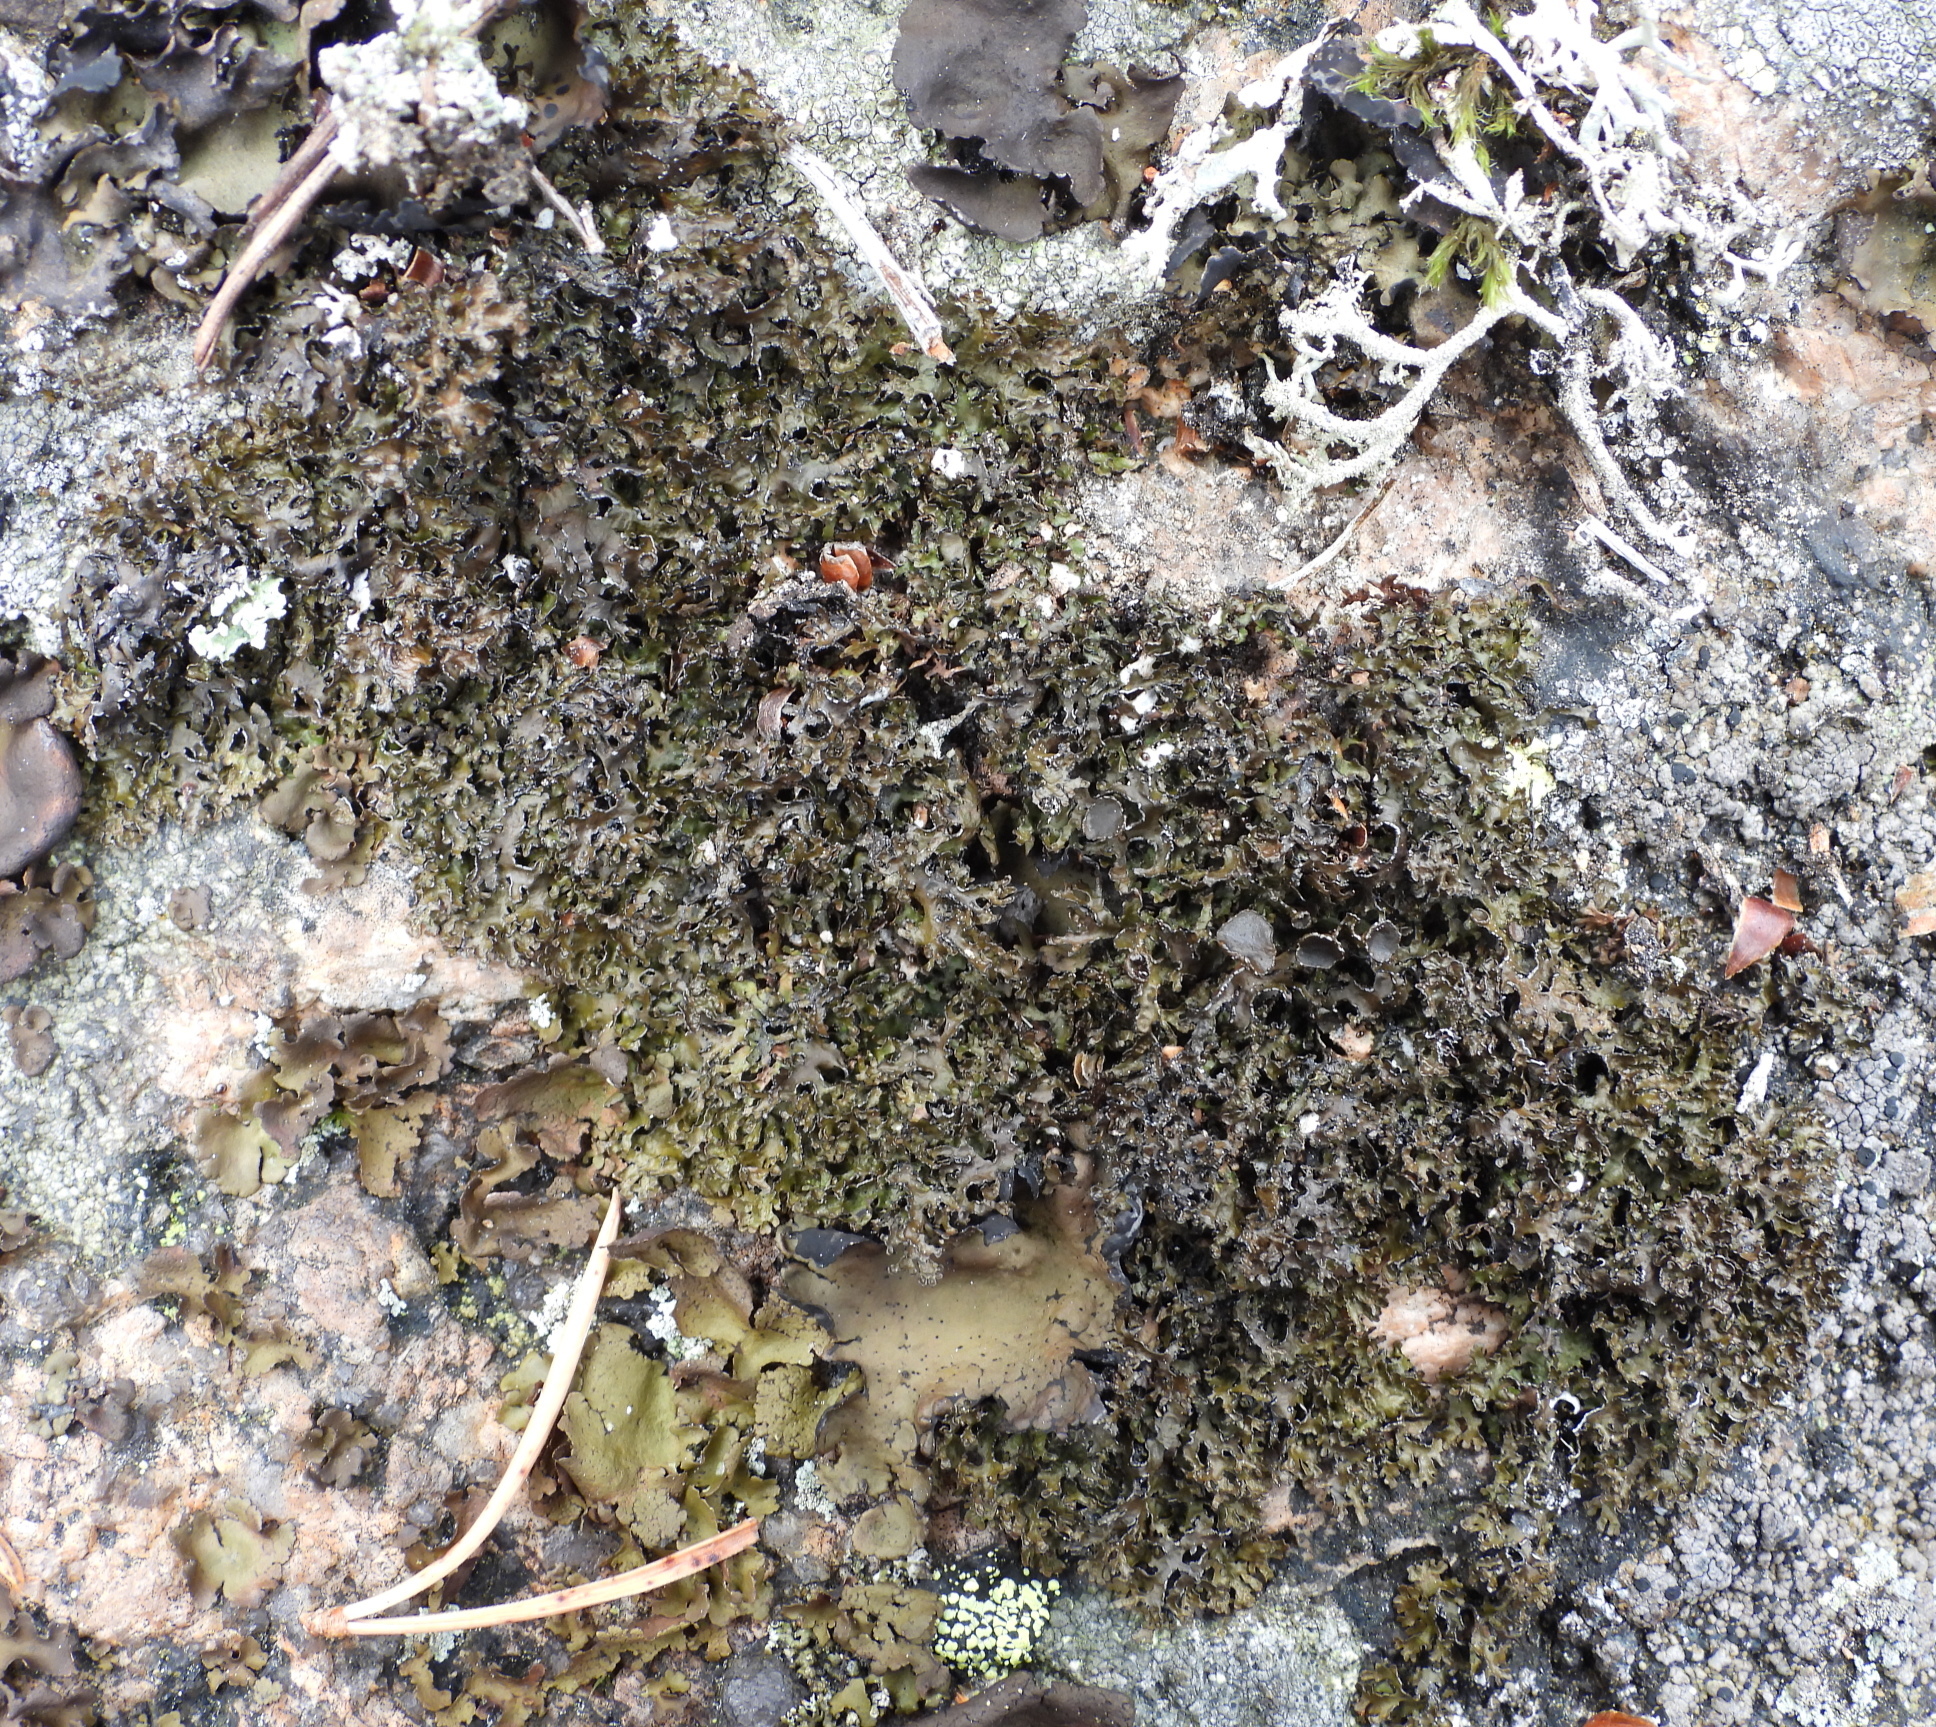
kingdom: Fungi
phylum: Ascomycota
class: Lecanoromycetes
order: Lecanorales
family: Parmeliaceae
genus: Melanelia
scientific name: Melanelia commixta
